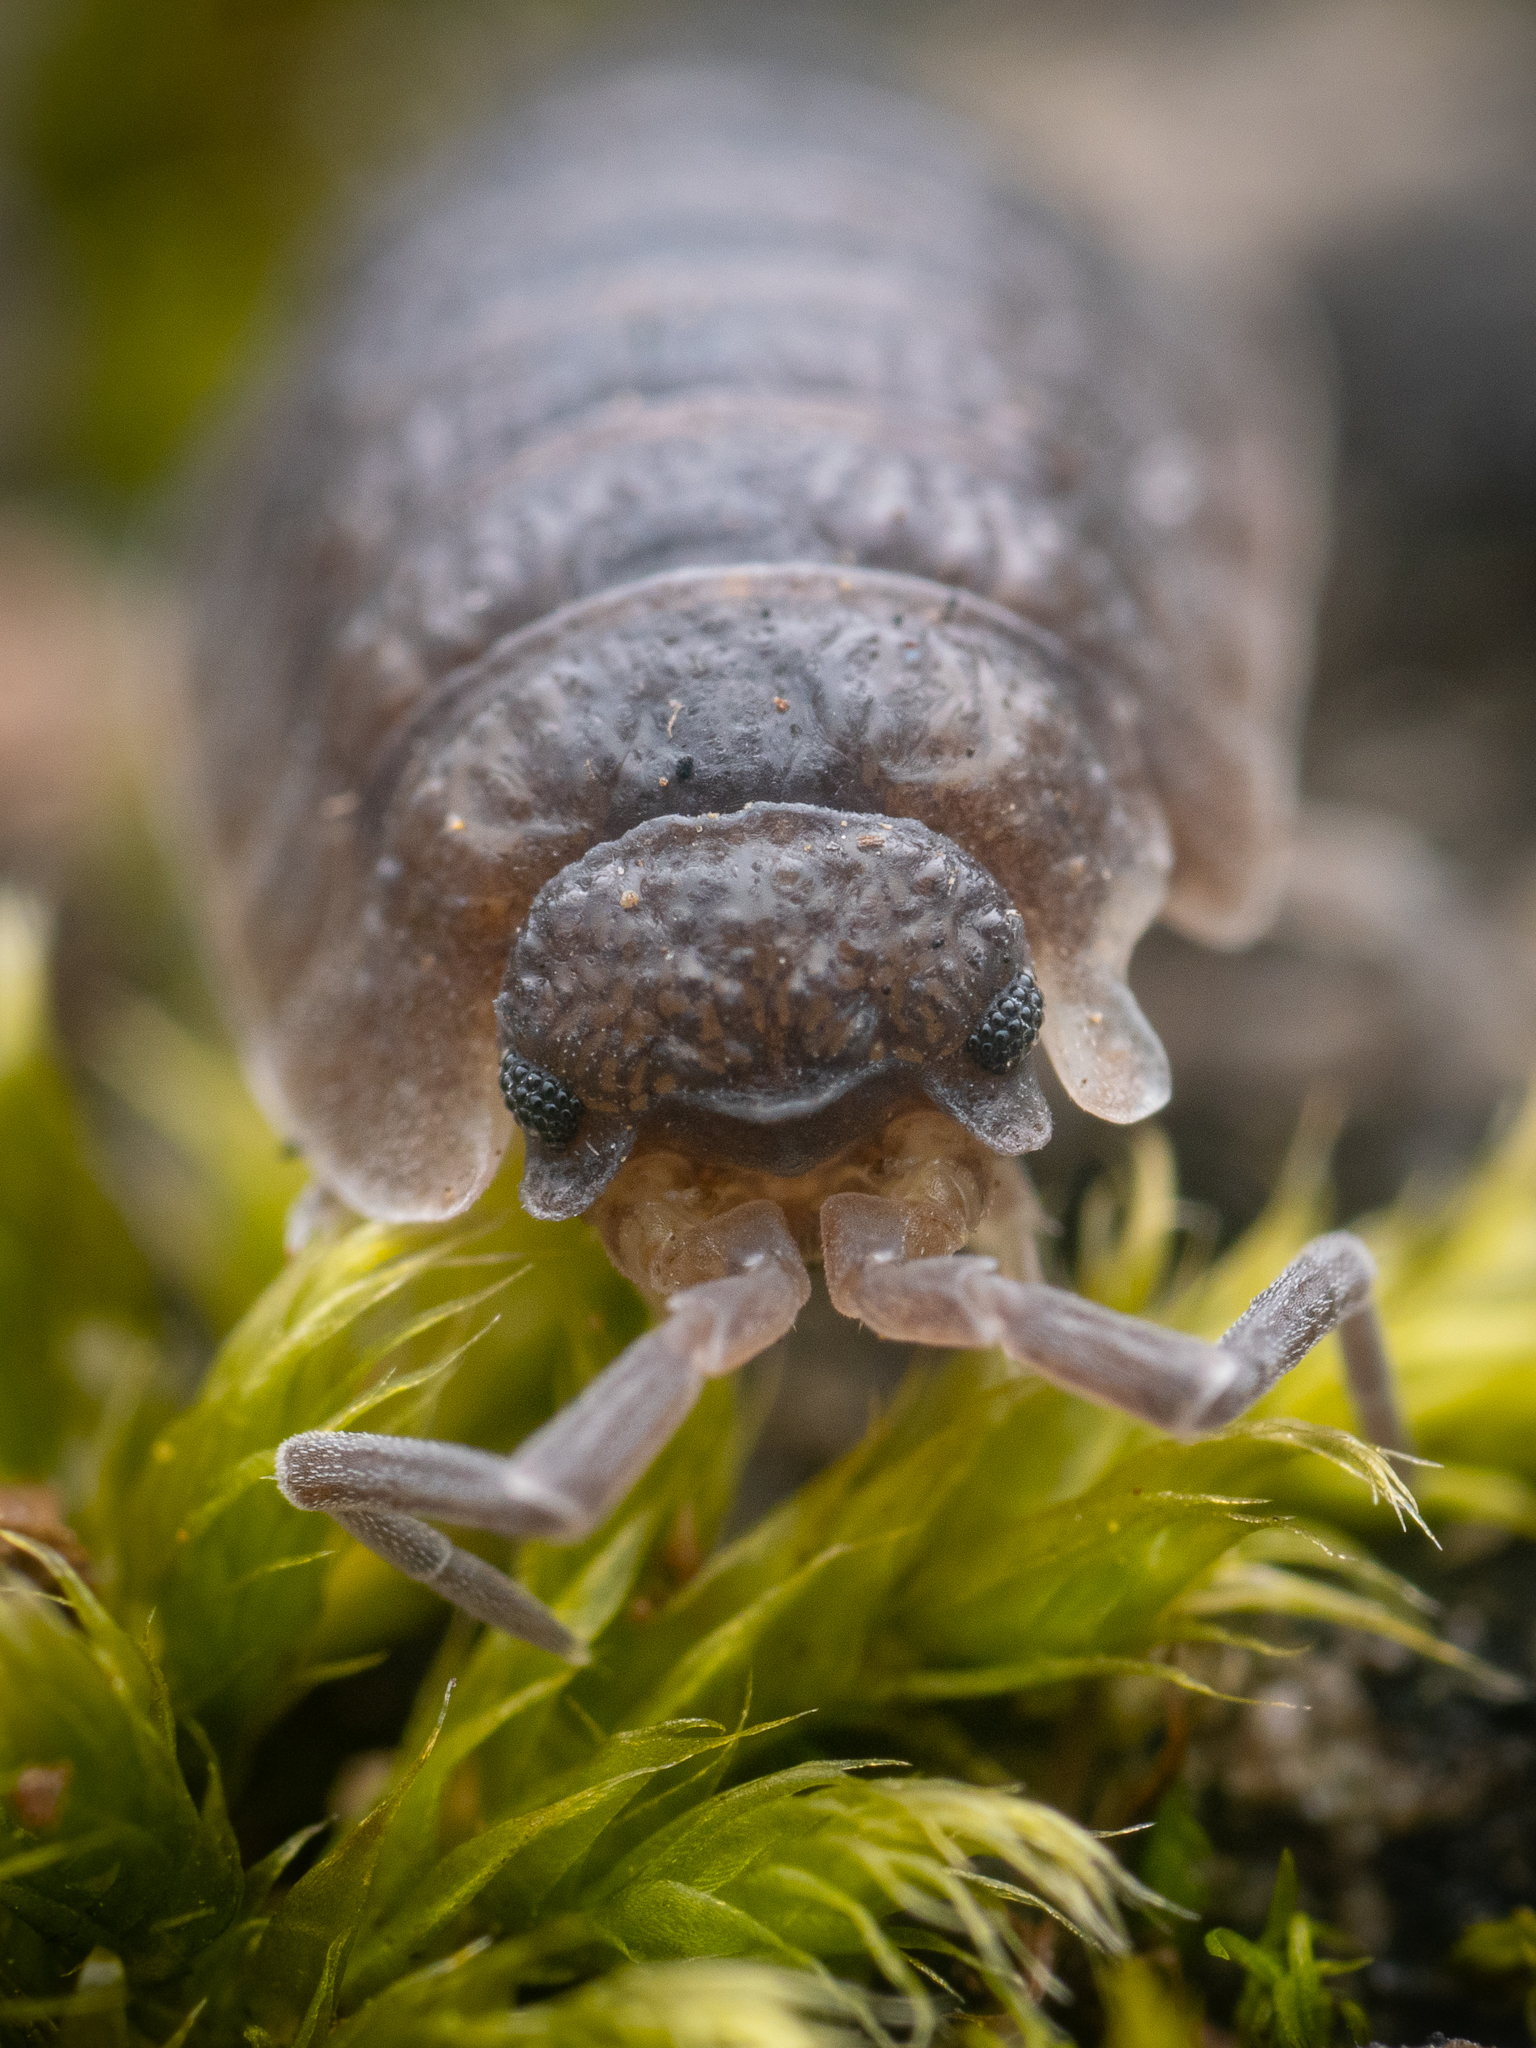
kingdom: Animalia
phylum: Arthropoda
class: Malacostraca
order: Isopoda
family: Porcellionidae
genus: Porcellio
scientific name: Porcellio scaber
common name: Common rough woodlouse
